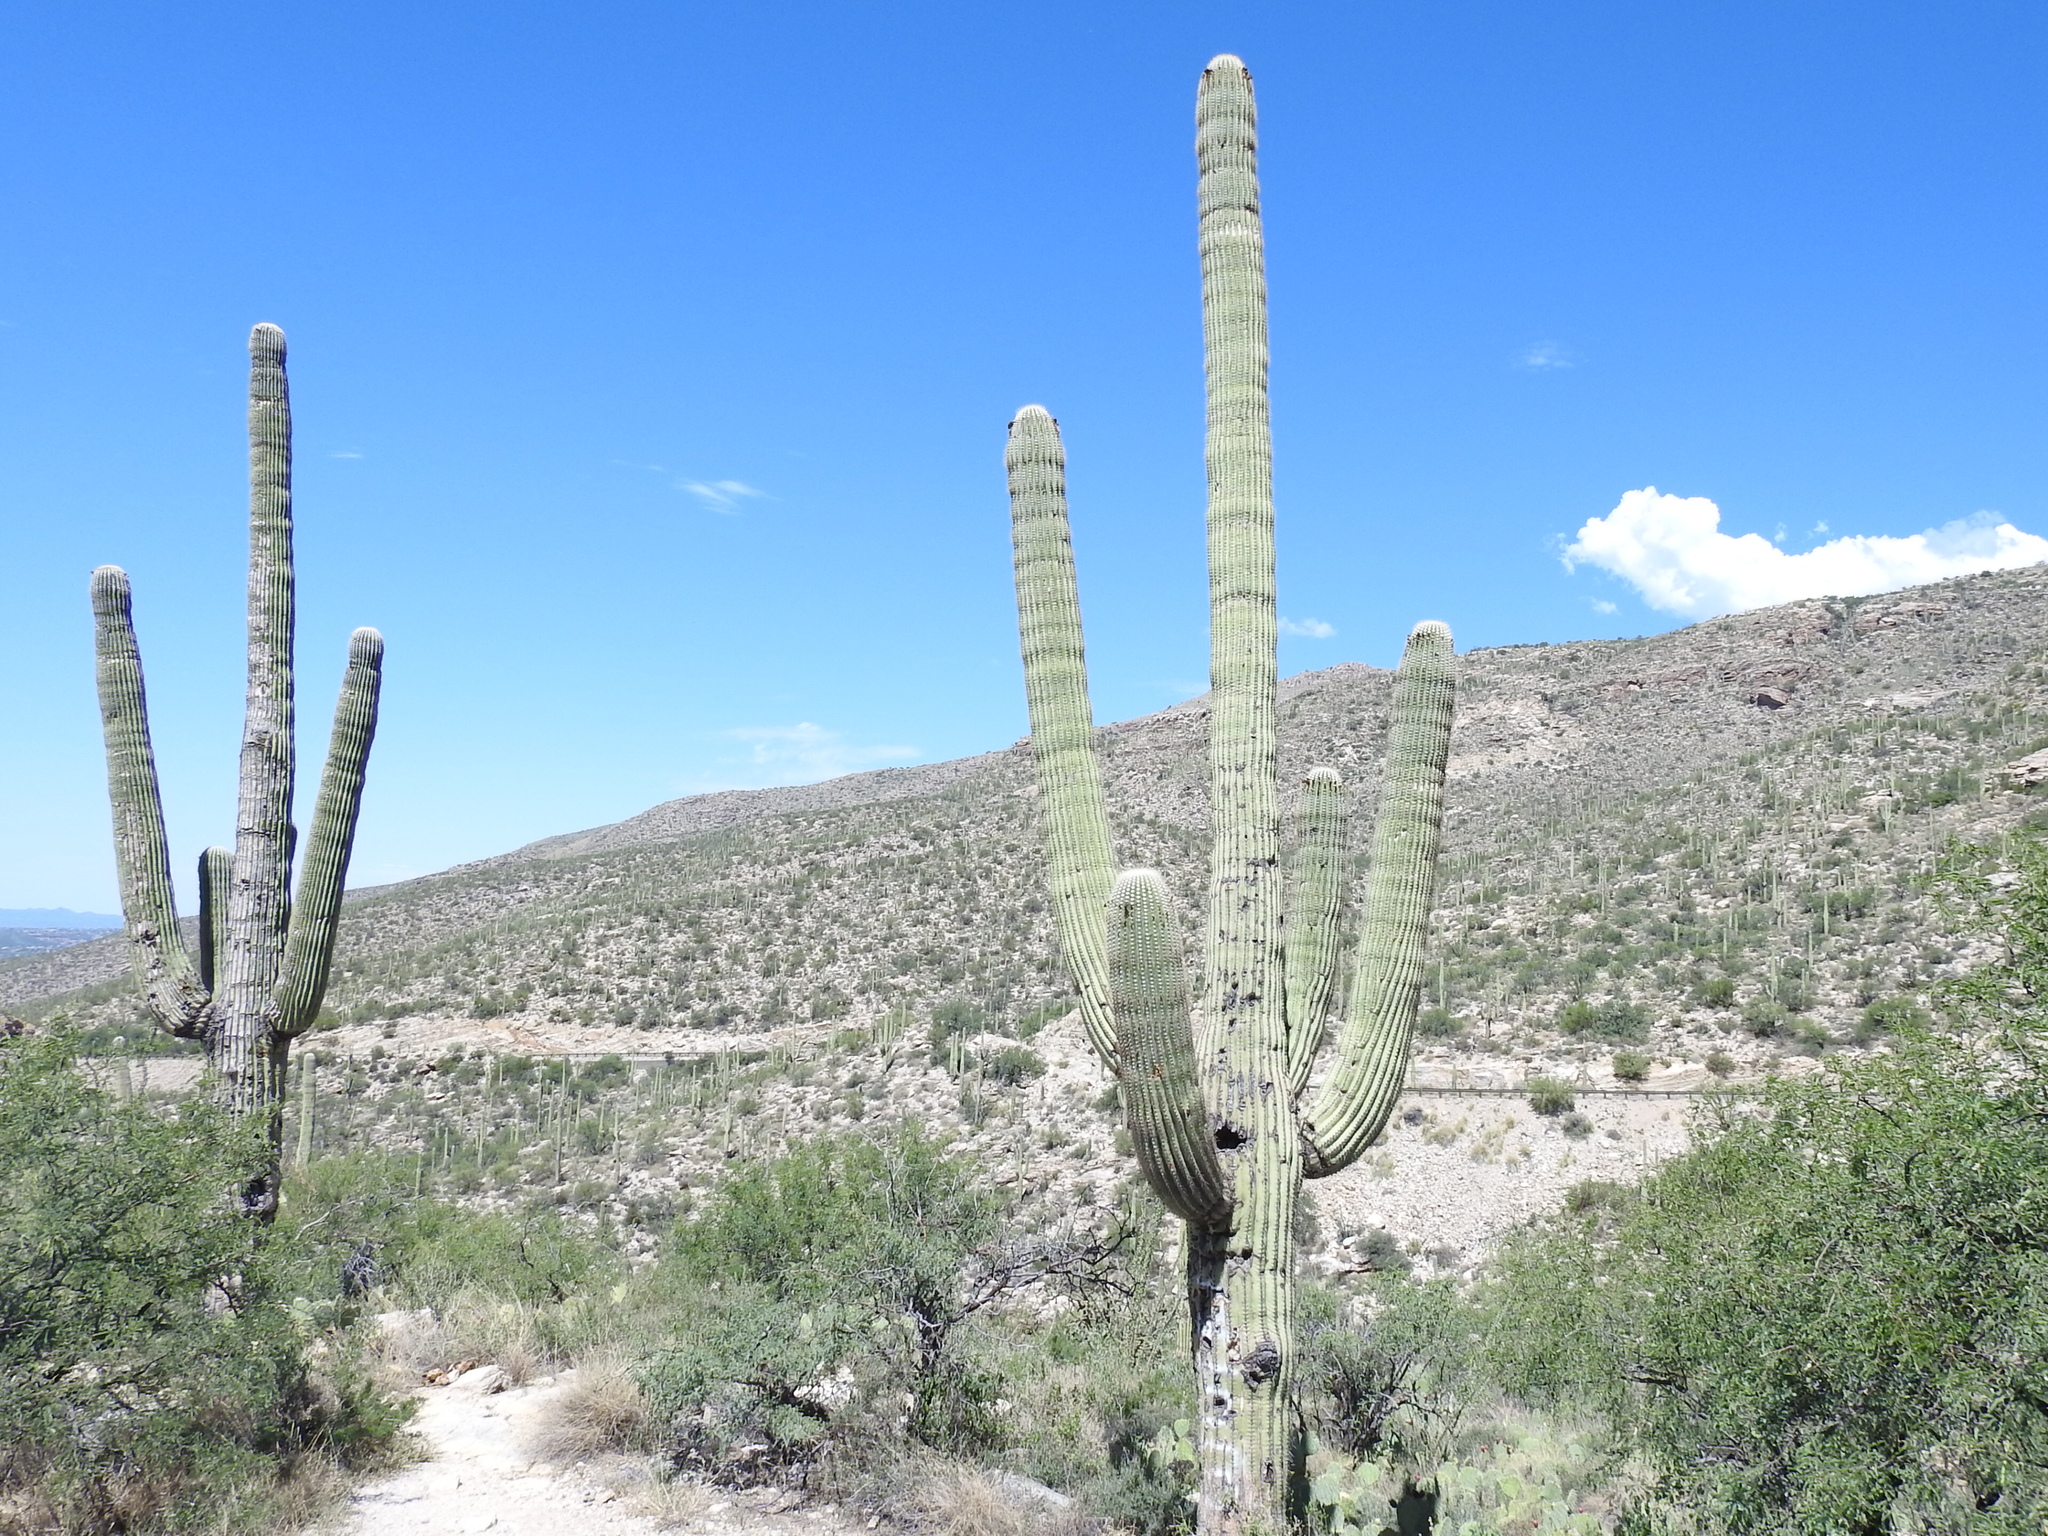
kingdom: Plantae
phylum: Tracheophyta
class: Magnoliopsida
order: Caryophyllales
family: Cactaceae
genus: Carnegiea
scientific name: Carnegiea gigantea
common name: Saguaro
